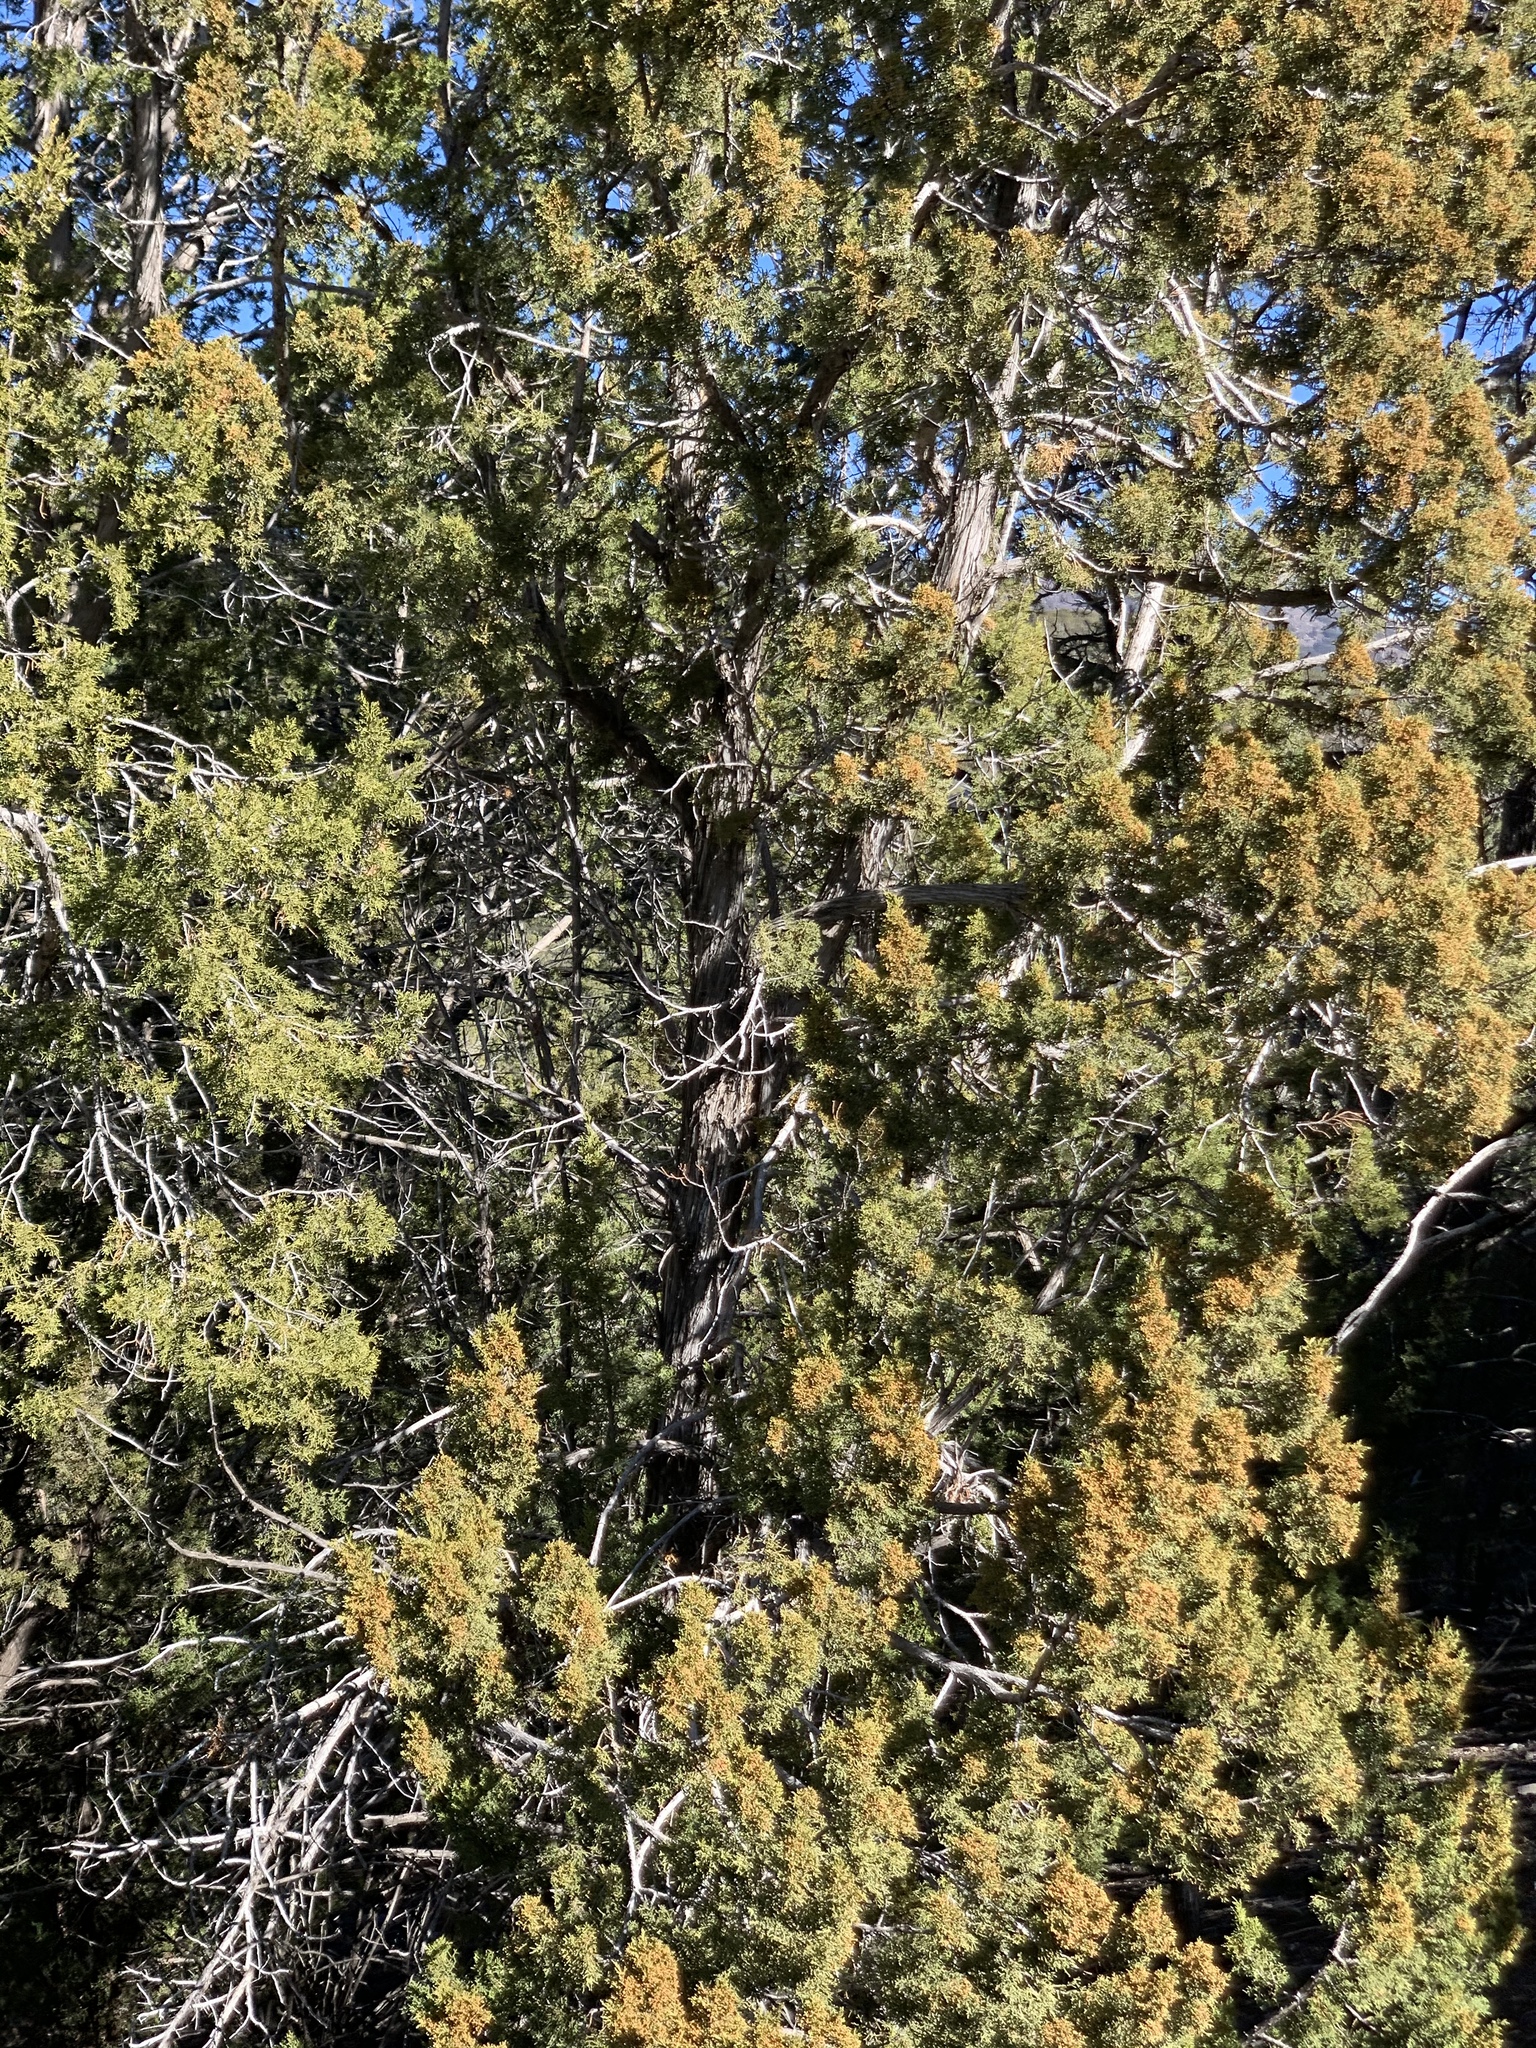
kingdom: Plantae
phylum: Tracheophyta
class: Pinopsida
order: Pinales
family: Cupressaceae
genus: Juniperus
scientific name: Juniperus monosperma
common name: One-seed juniper
